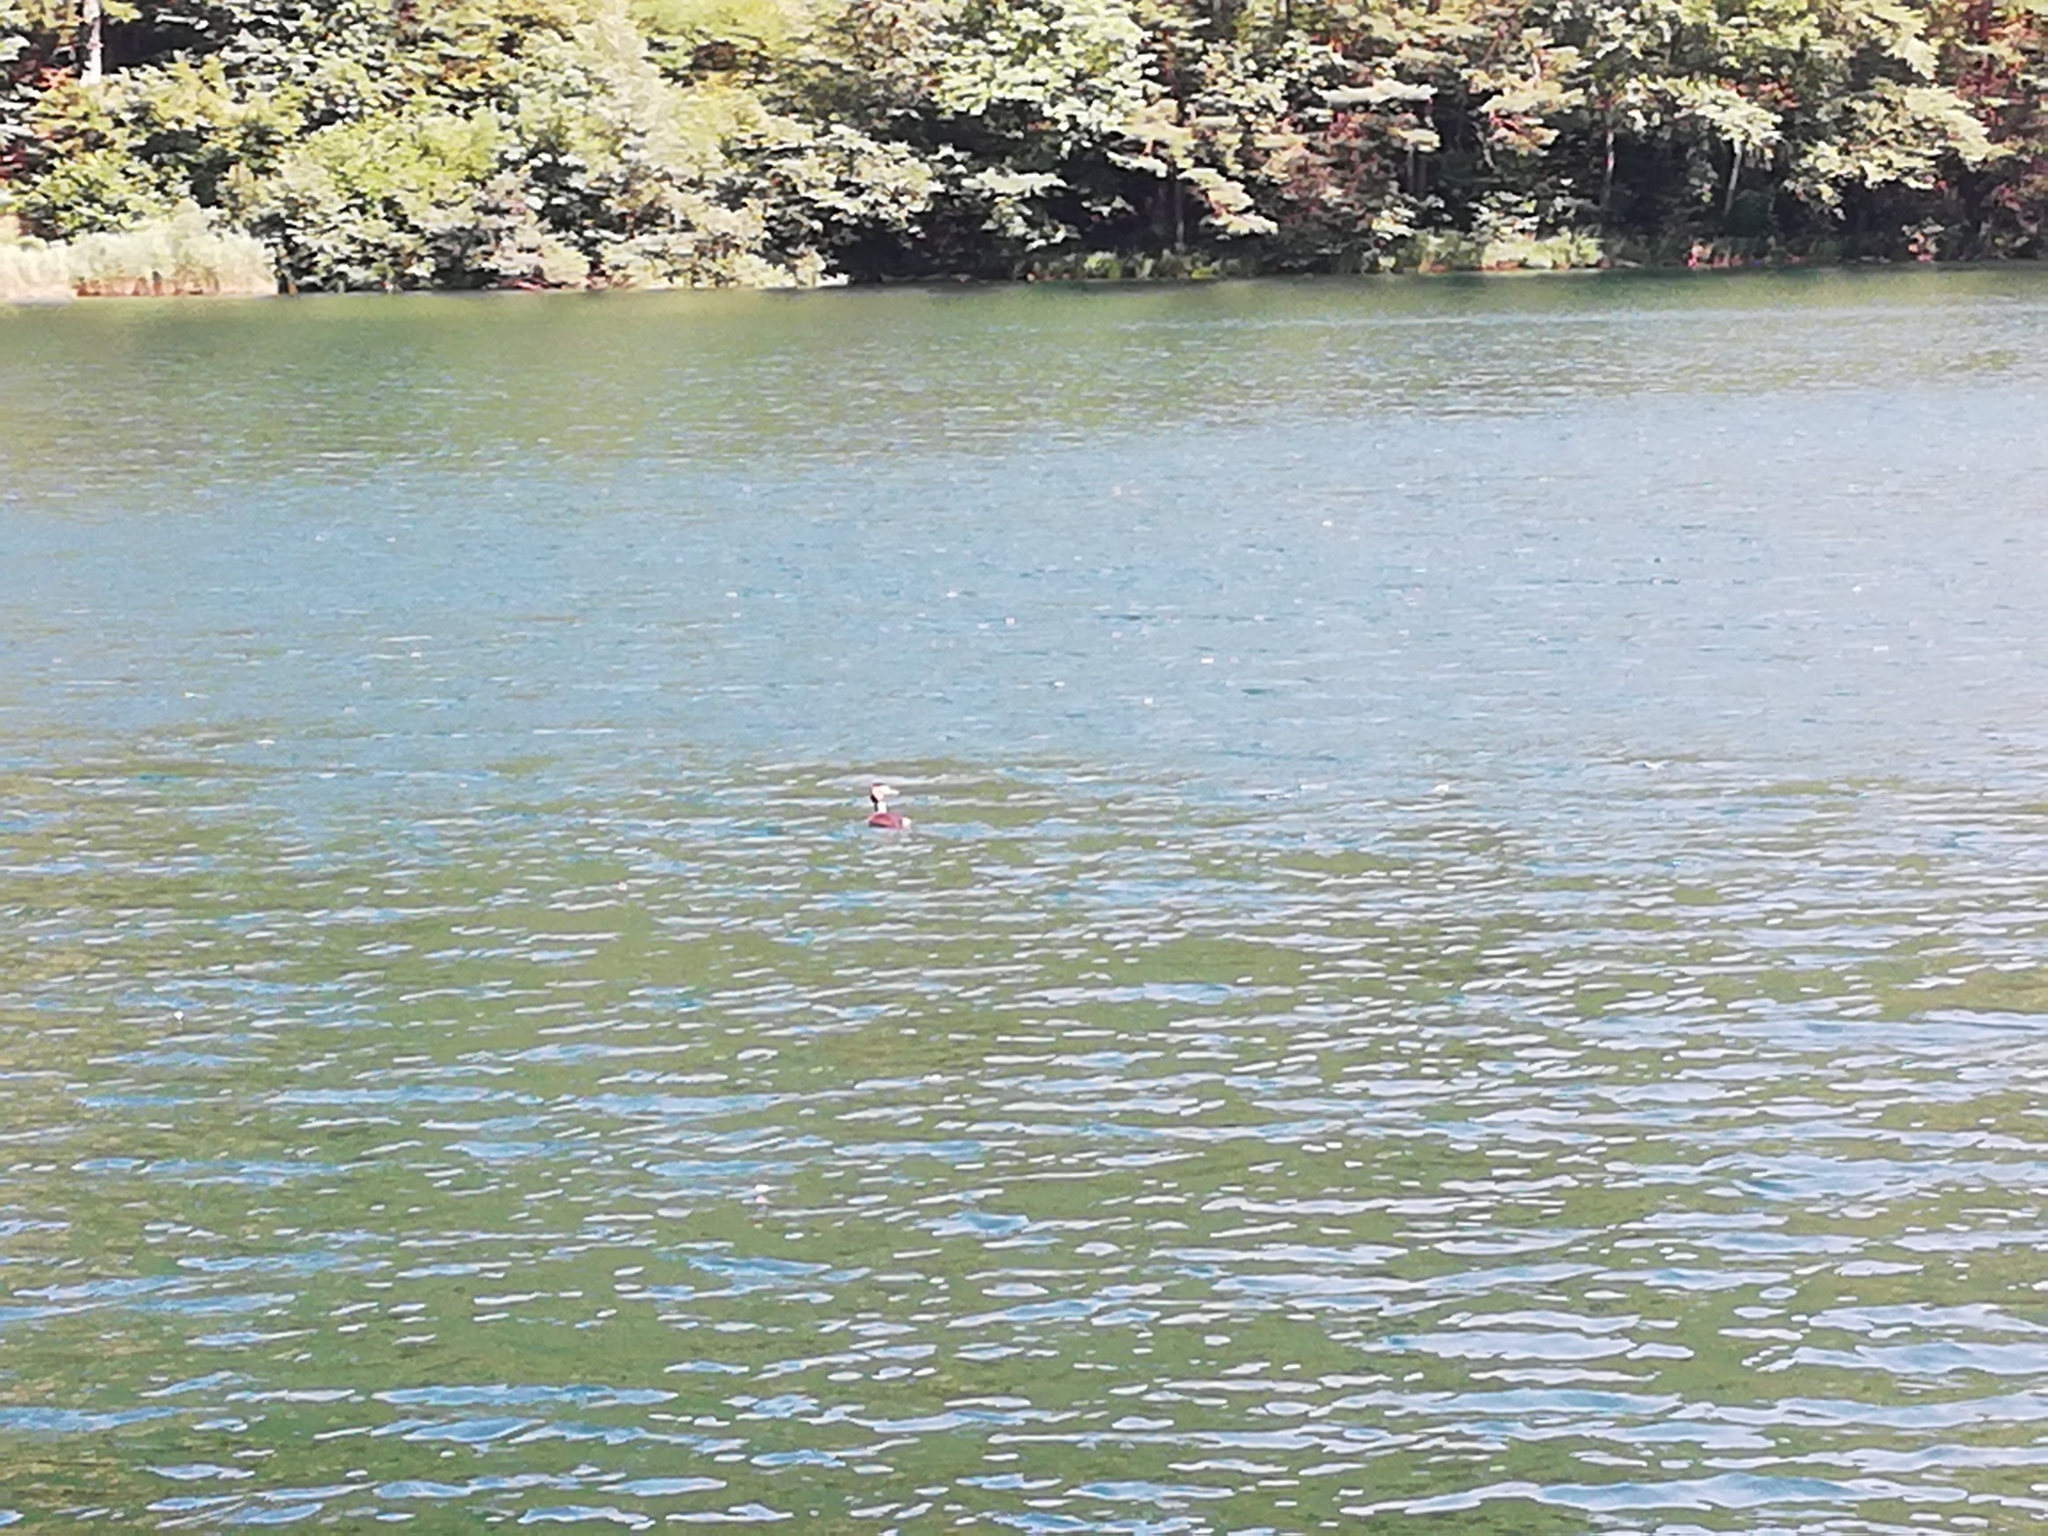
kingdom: Animalia
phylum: Chordata
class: Aves
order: Podicipediformes
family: Podicipedidae
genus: Podiceps
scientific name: Podiceps cristatus
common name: Great crested grebe
